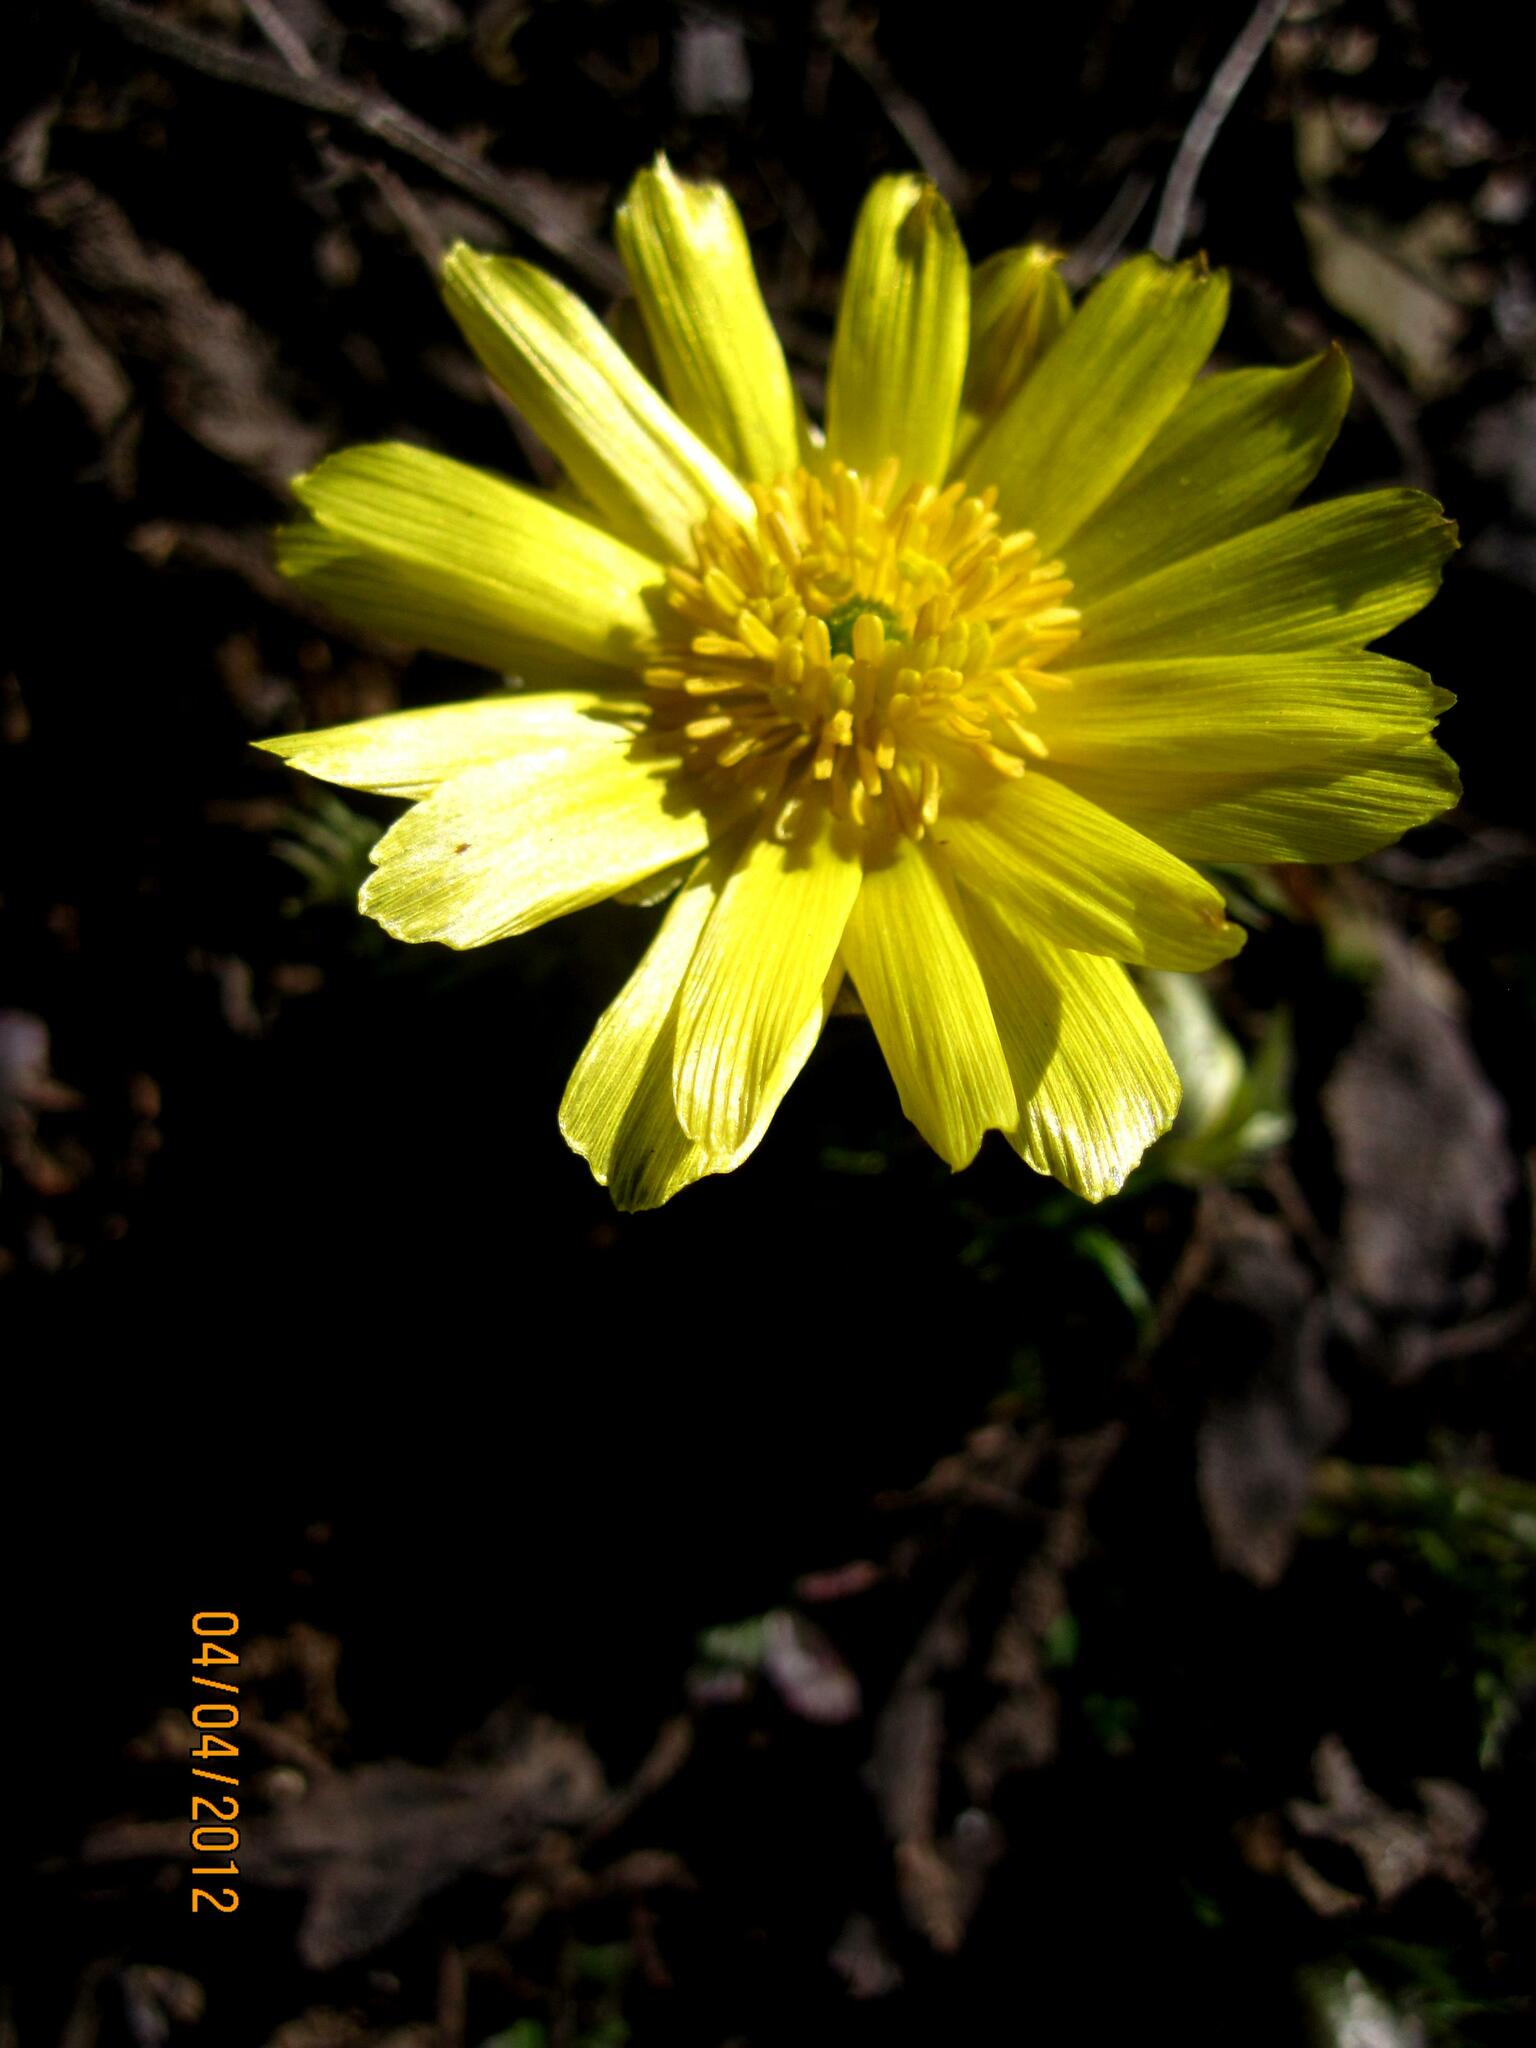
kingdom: Plantae
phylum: Tracheophyta
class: Magnoliopsida
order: Ranunculales
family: Ranunculaceae
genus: Adonis
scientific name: Adonis volgensis
